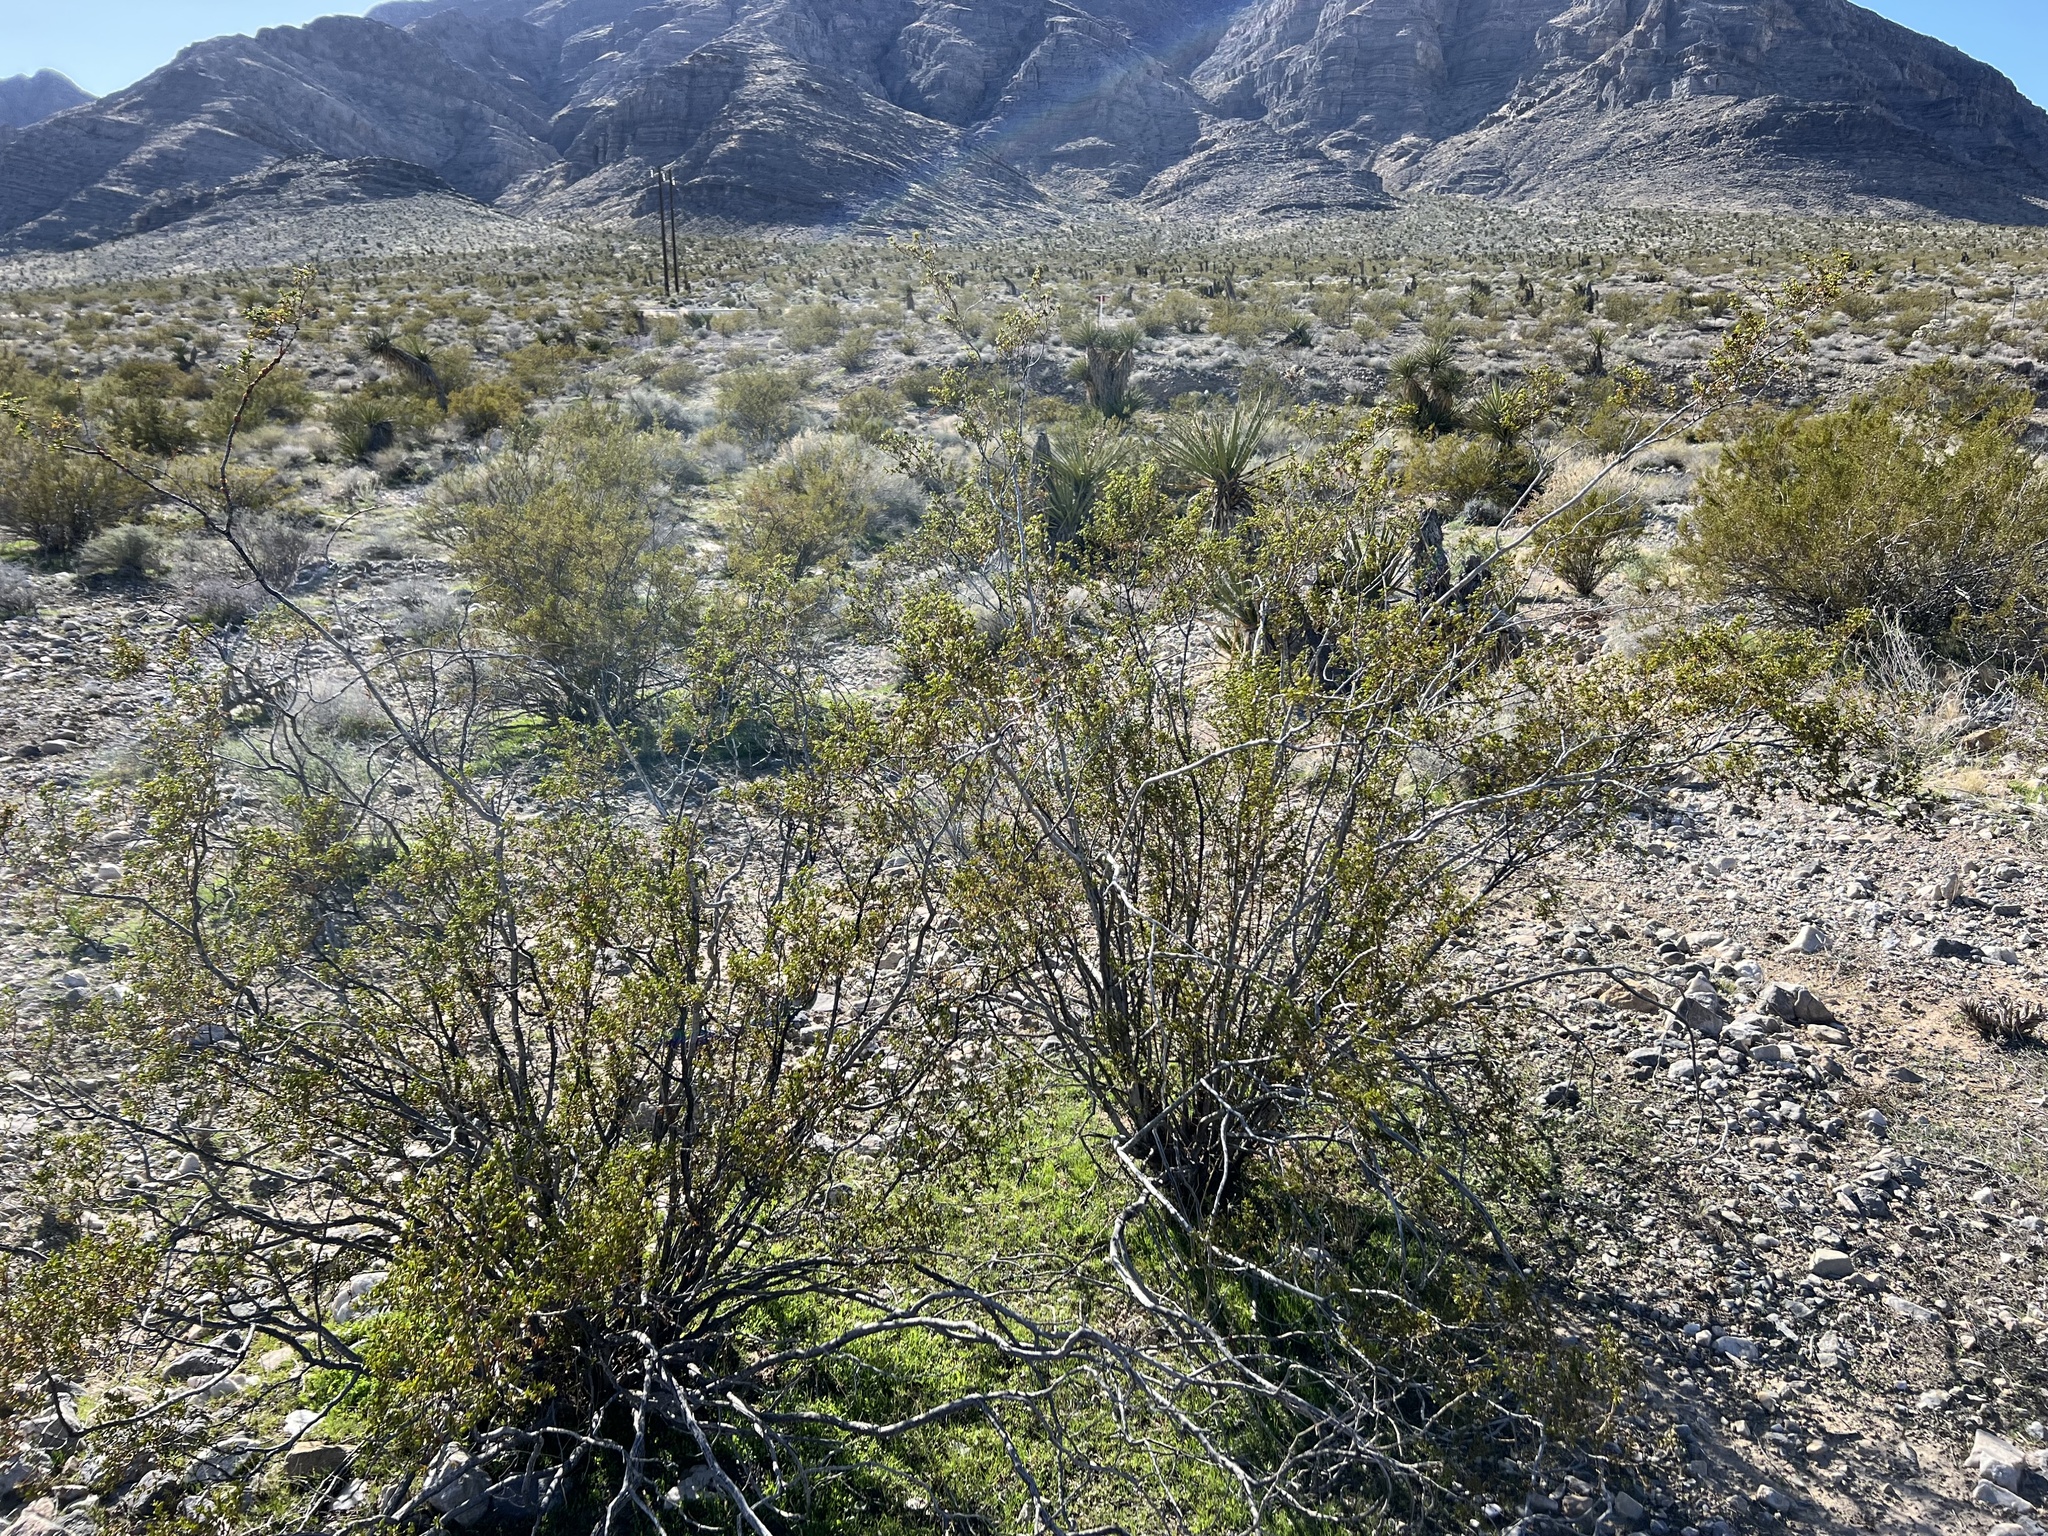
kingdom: Plantae
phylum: Tracheophyta
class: Magnoliopsida
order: Zygophyllales
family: Zygophyllaceae
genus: Larrea
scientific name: Larrea tridentata
